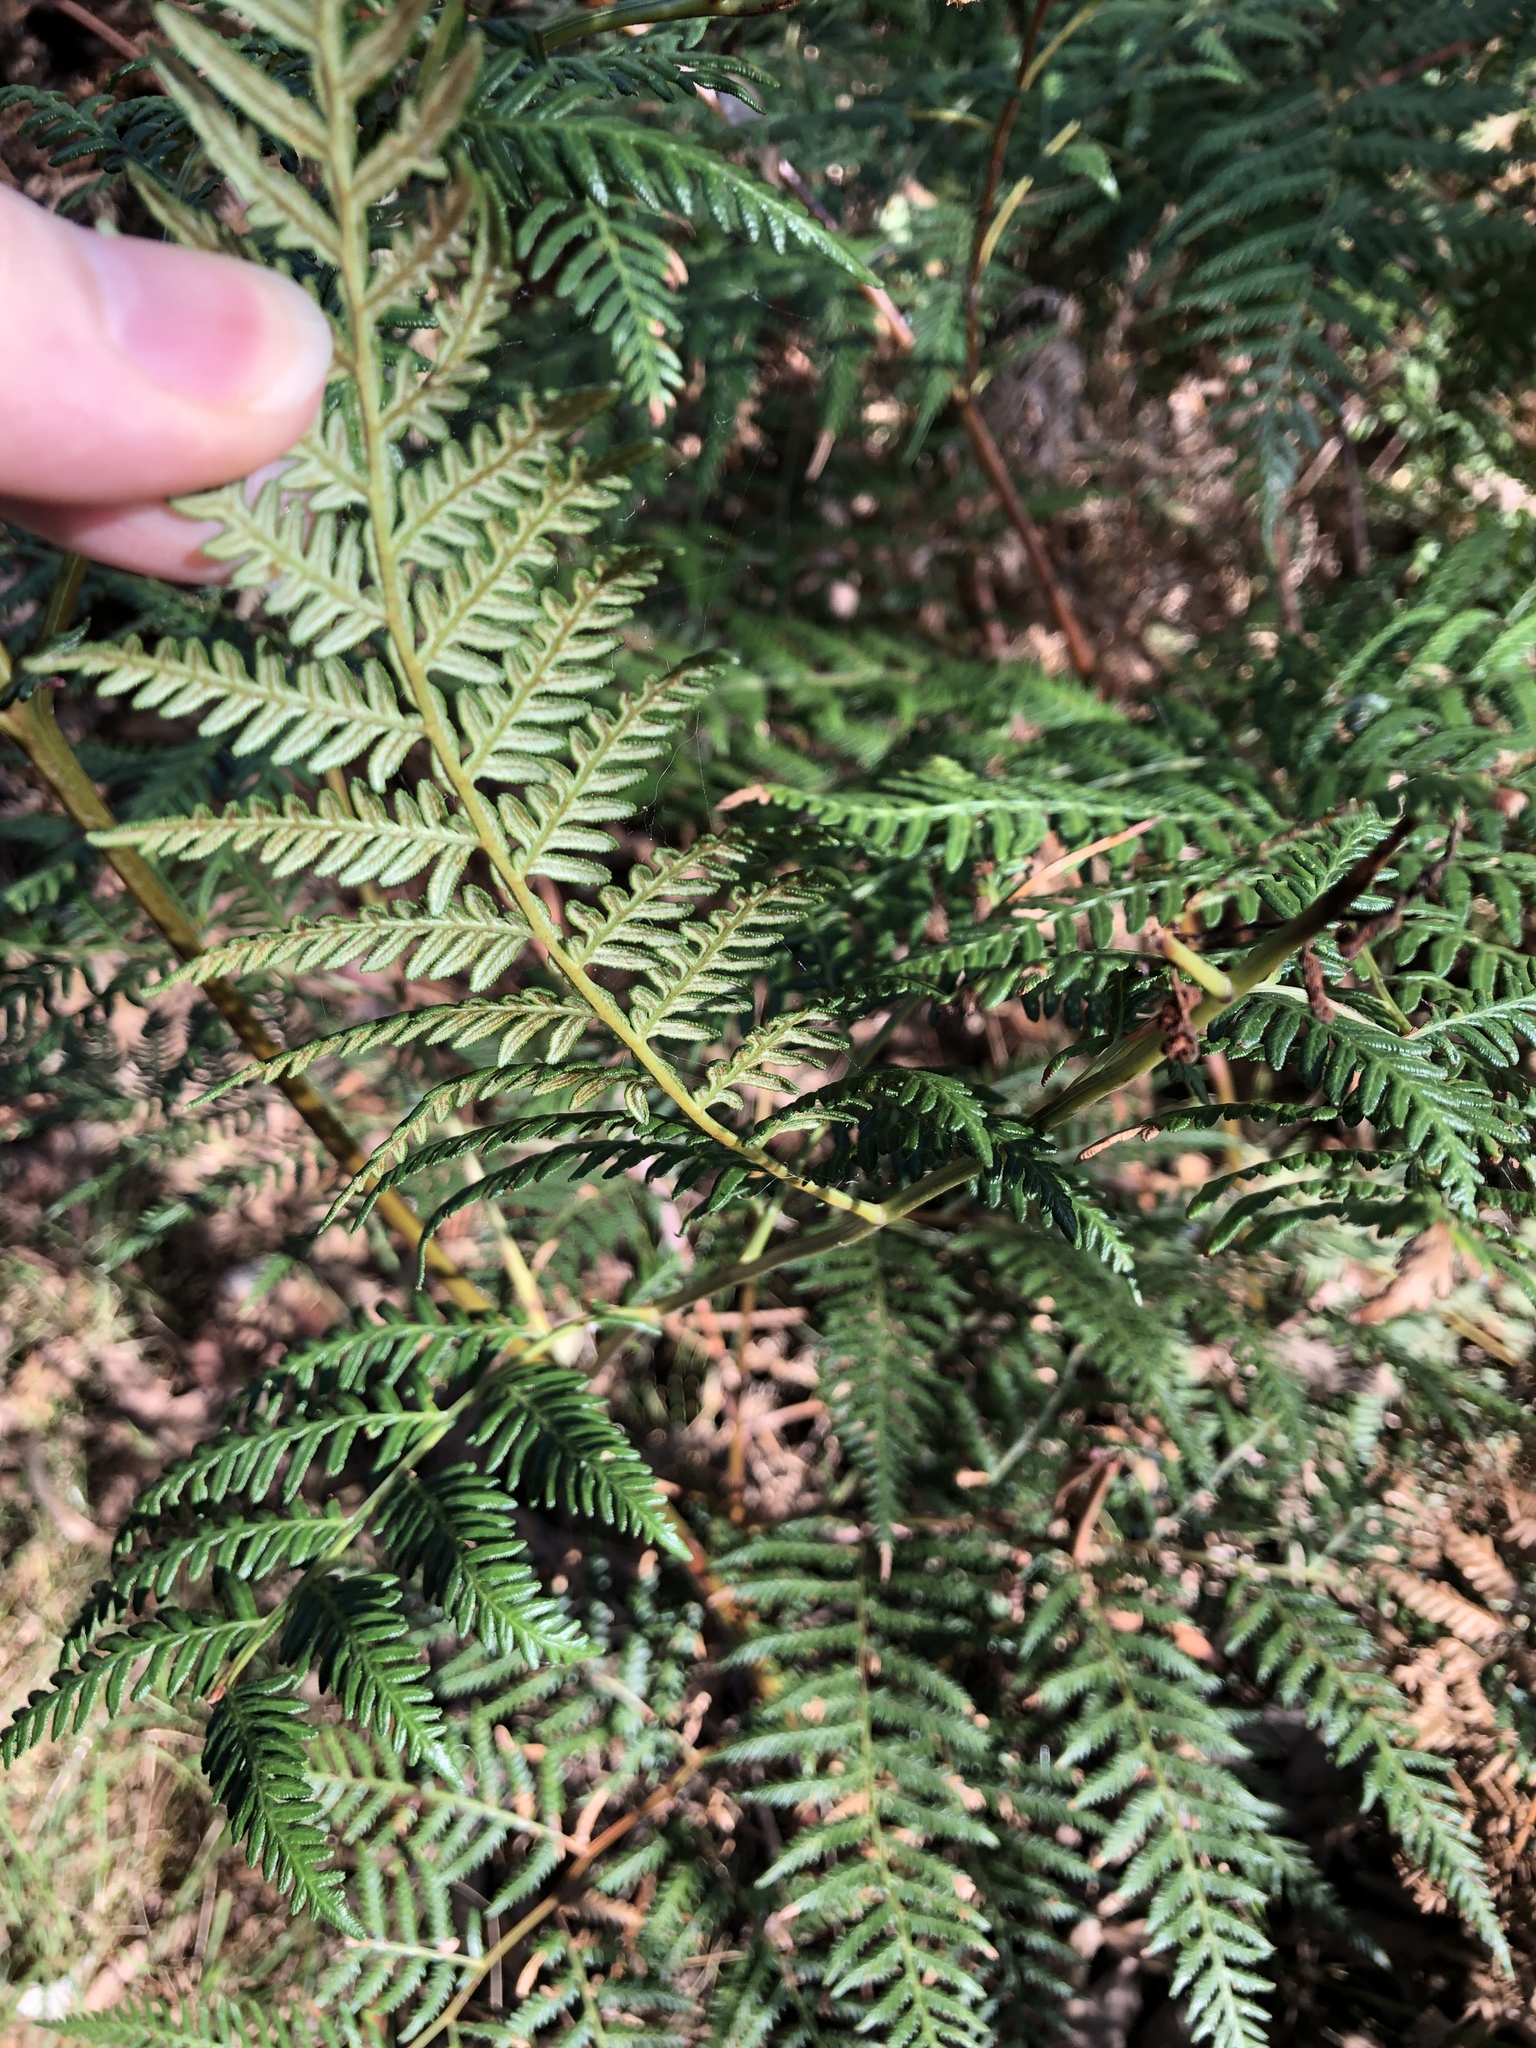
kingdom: Plantae
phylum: Tracheophyta
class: Polypodiopsida
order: Polypodiales
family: Dennstaedtiaceae
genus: Pteridium
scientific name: Pteridium esculentum
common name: Bracken fern
